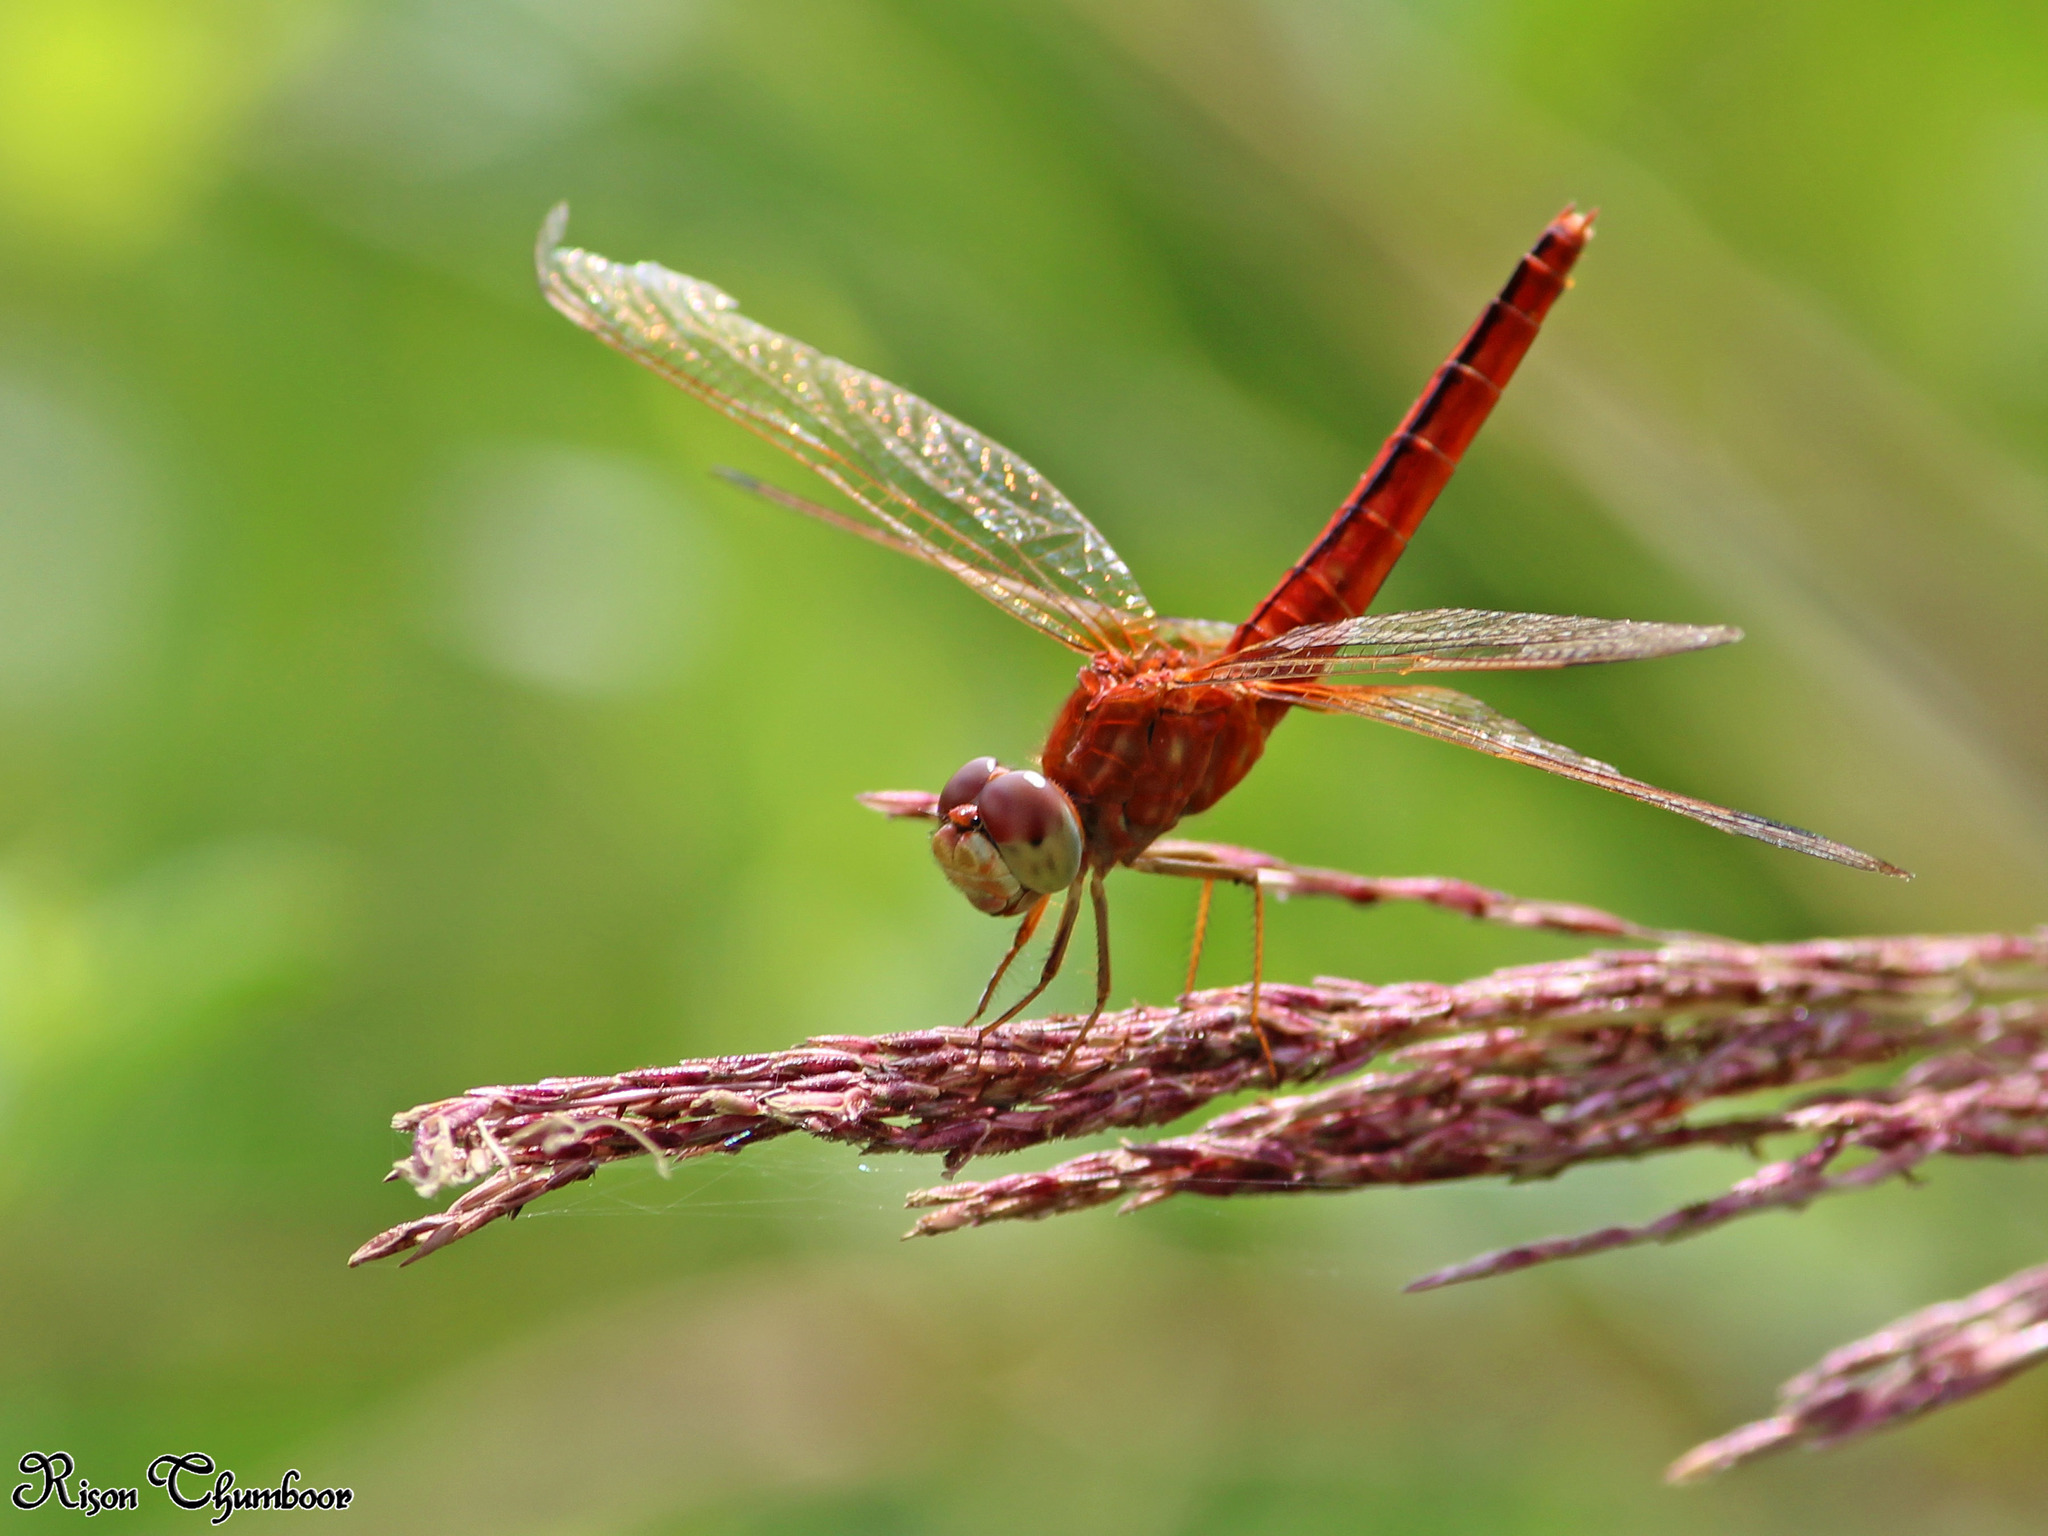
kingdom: Animalia
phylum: Arthropoda
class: Insecta
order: Odonata
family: Libellulidae
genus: Crocothemis
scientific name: Crocothemis servilia
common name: Scarlet skimmer
